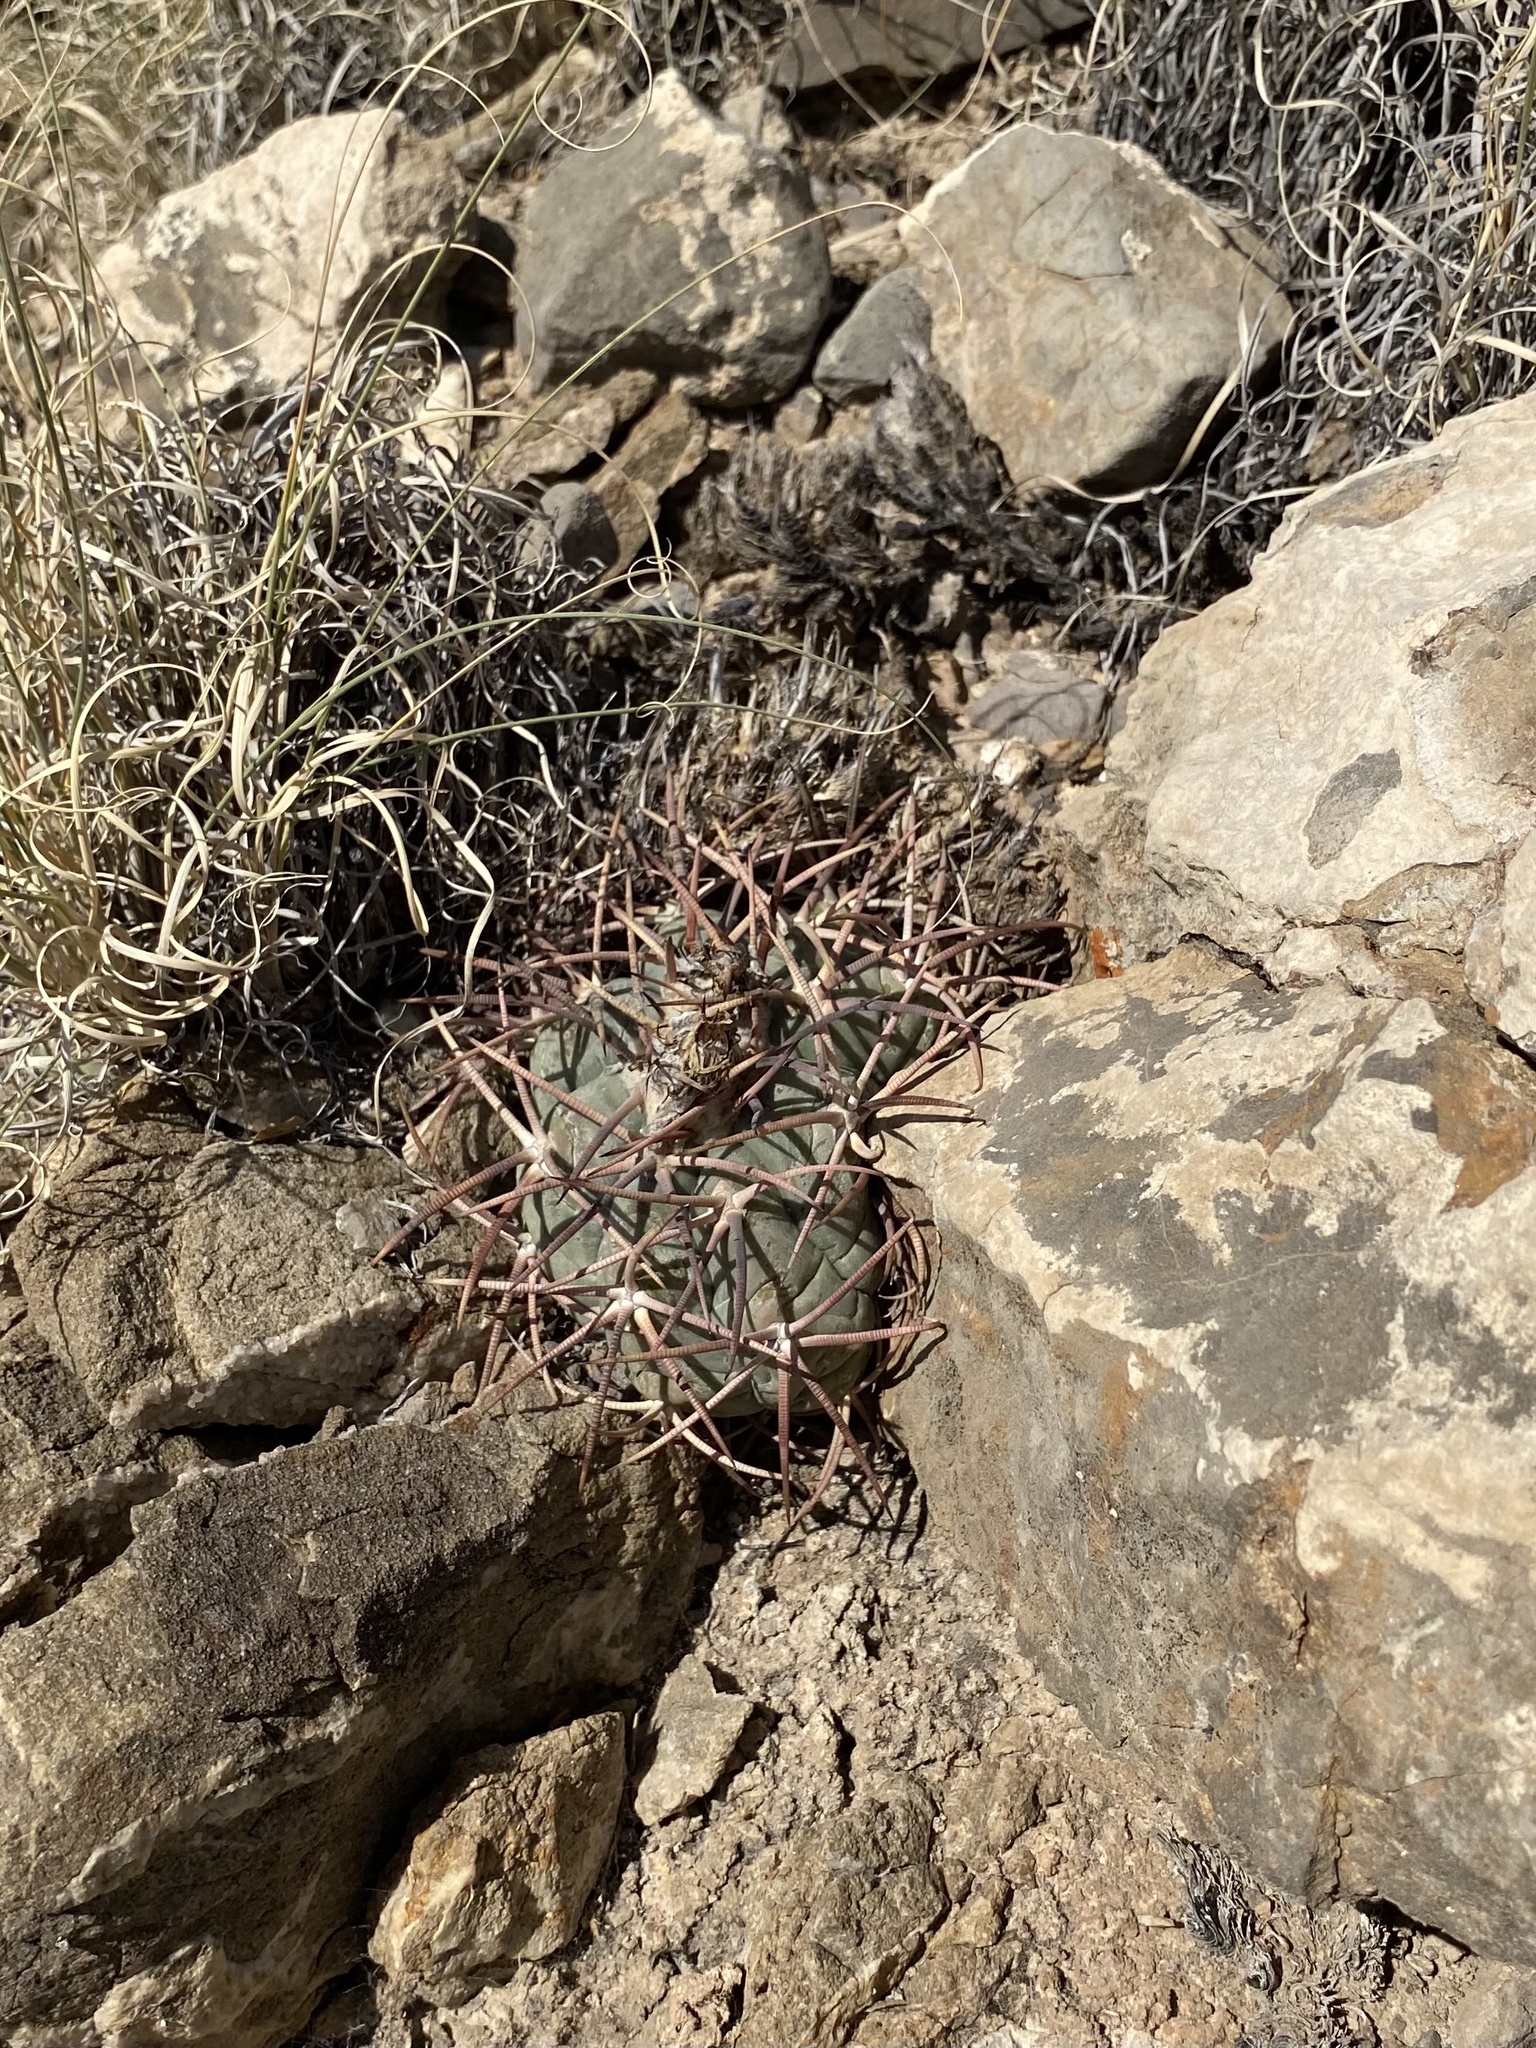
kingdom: Plantae
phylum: Tracheophyta
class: Magnoliopsida
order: Caryophyllales
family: Cactaceae
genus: Echinocactus
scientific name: Echinocactus horizonthalonius
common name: Devilshead
